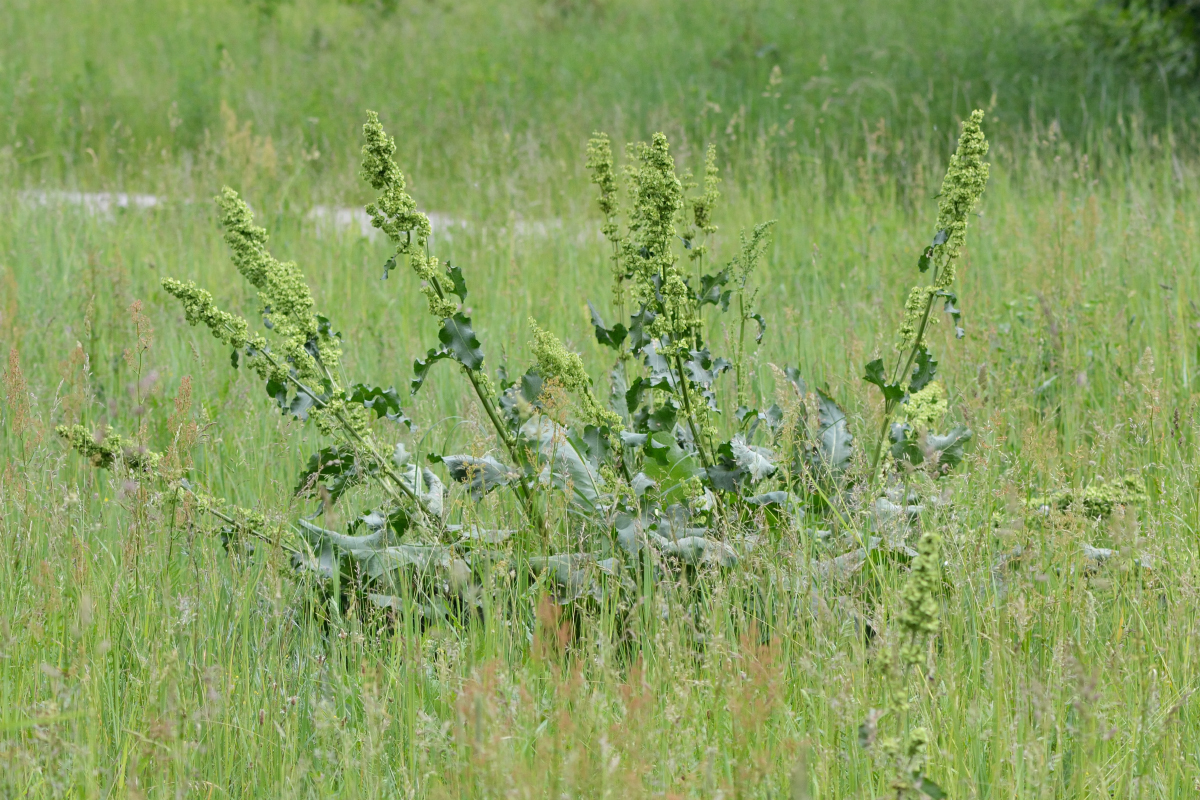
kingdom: Plantae
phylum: Tracheophyta
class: Magnoliopsida
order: Caryophyllales
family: Polygonaceae
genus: Rumex
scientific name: Rumex confertus
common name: Russian dock
